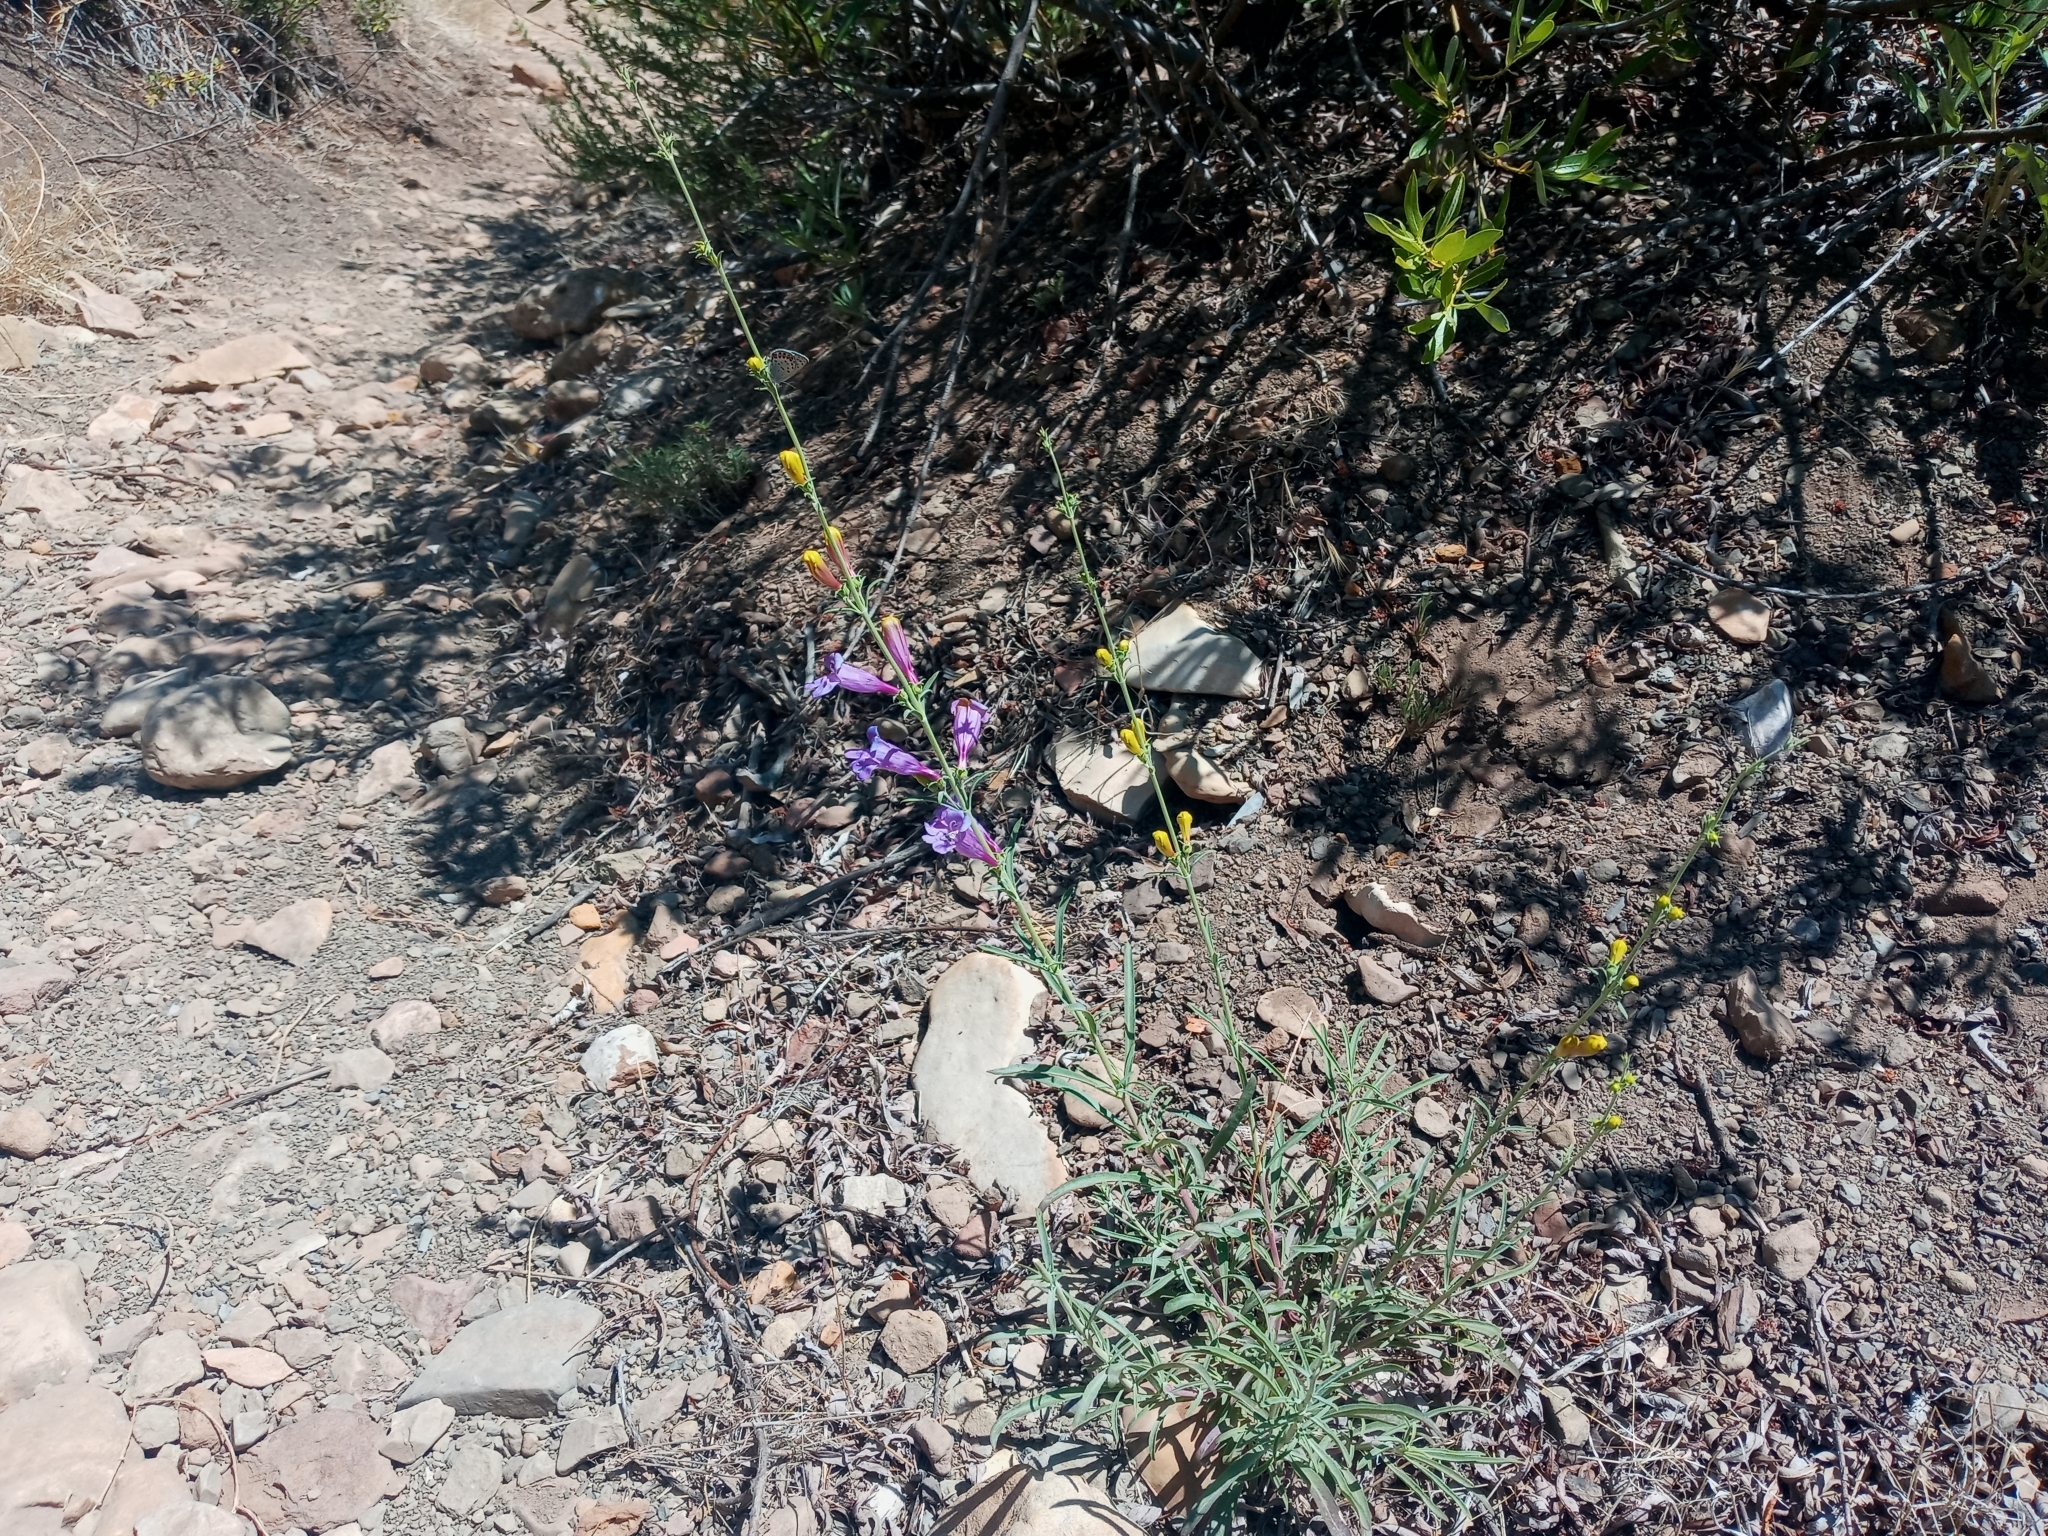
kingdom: Plantae
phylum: Tracheophyta
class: Magnoliopsida
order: Lamiales
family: Plantaginaceae
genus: Penstemon
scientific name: Penstemon heterophyllus
